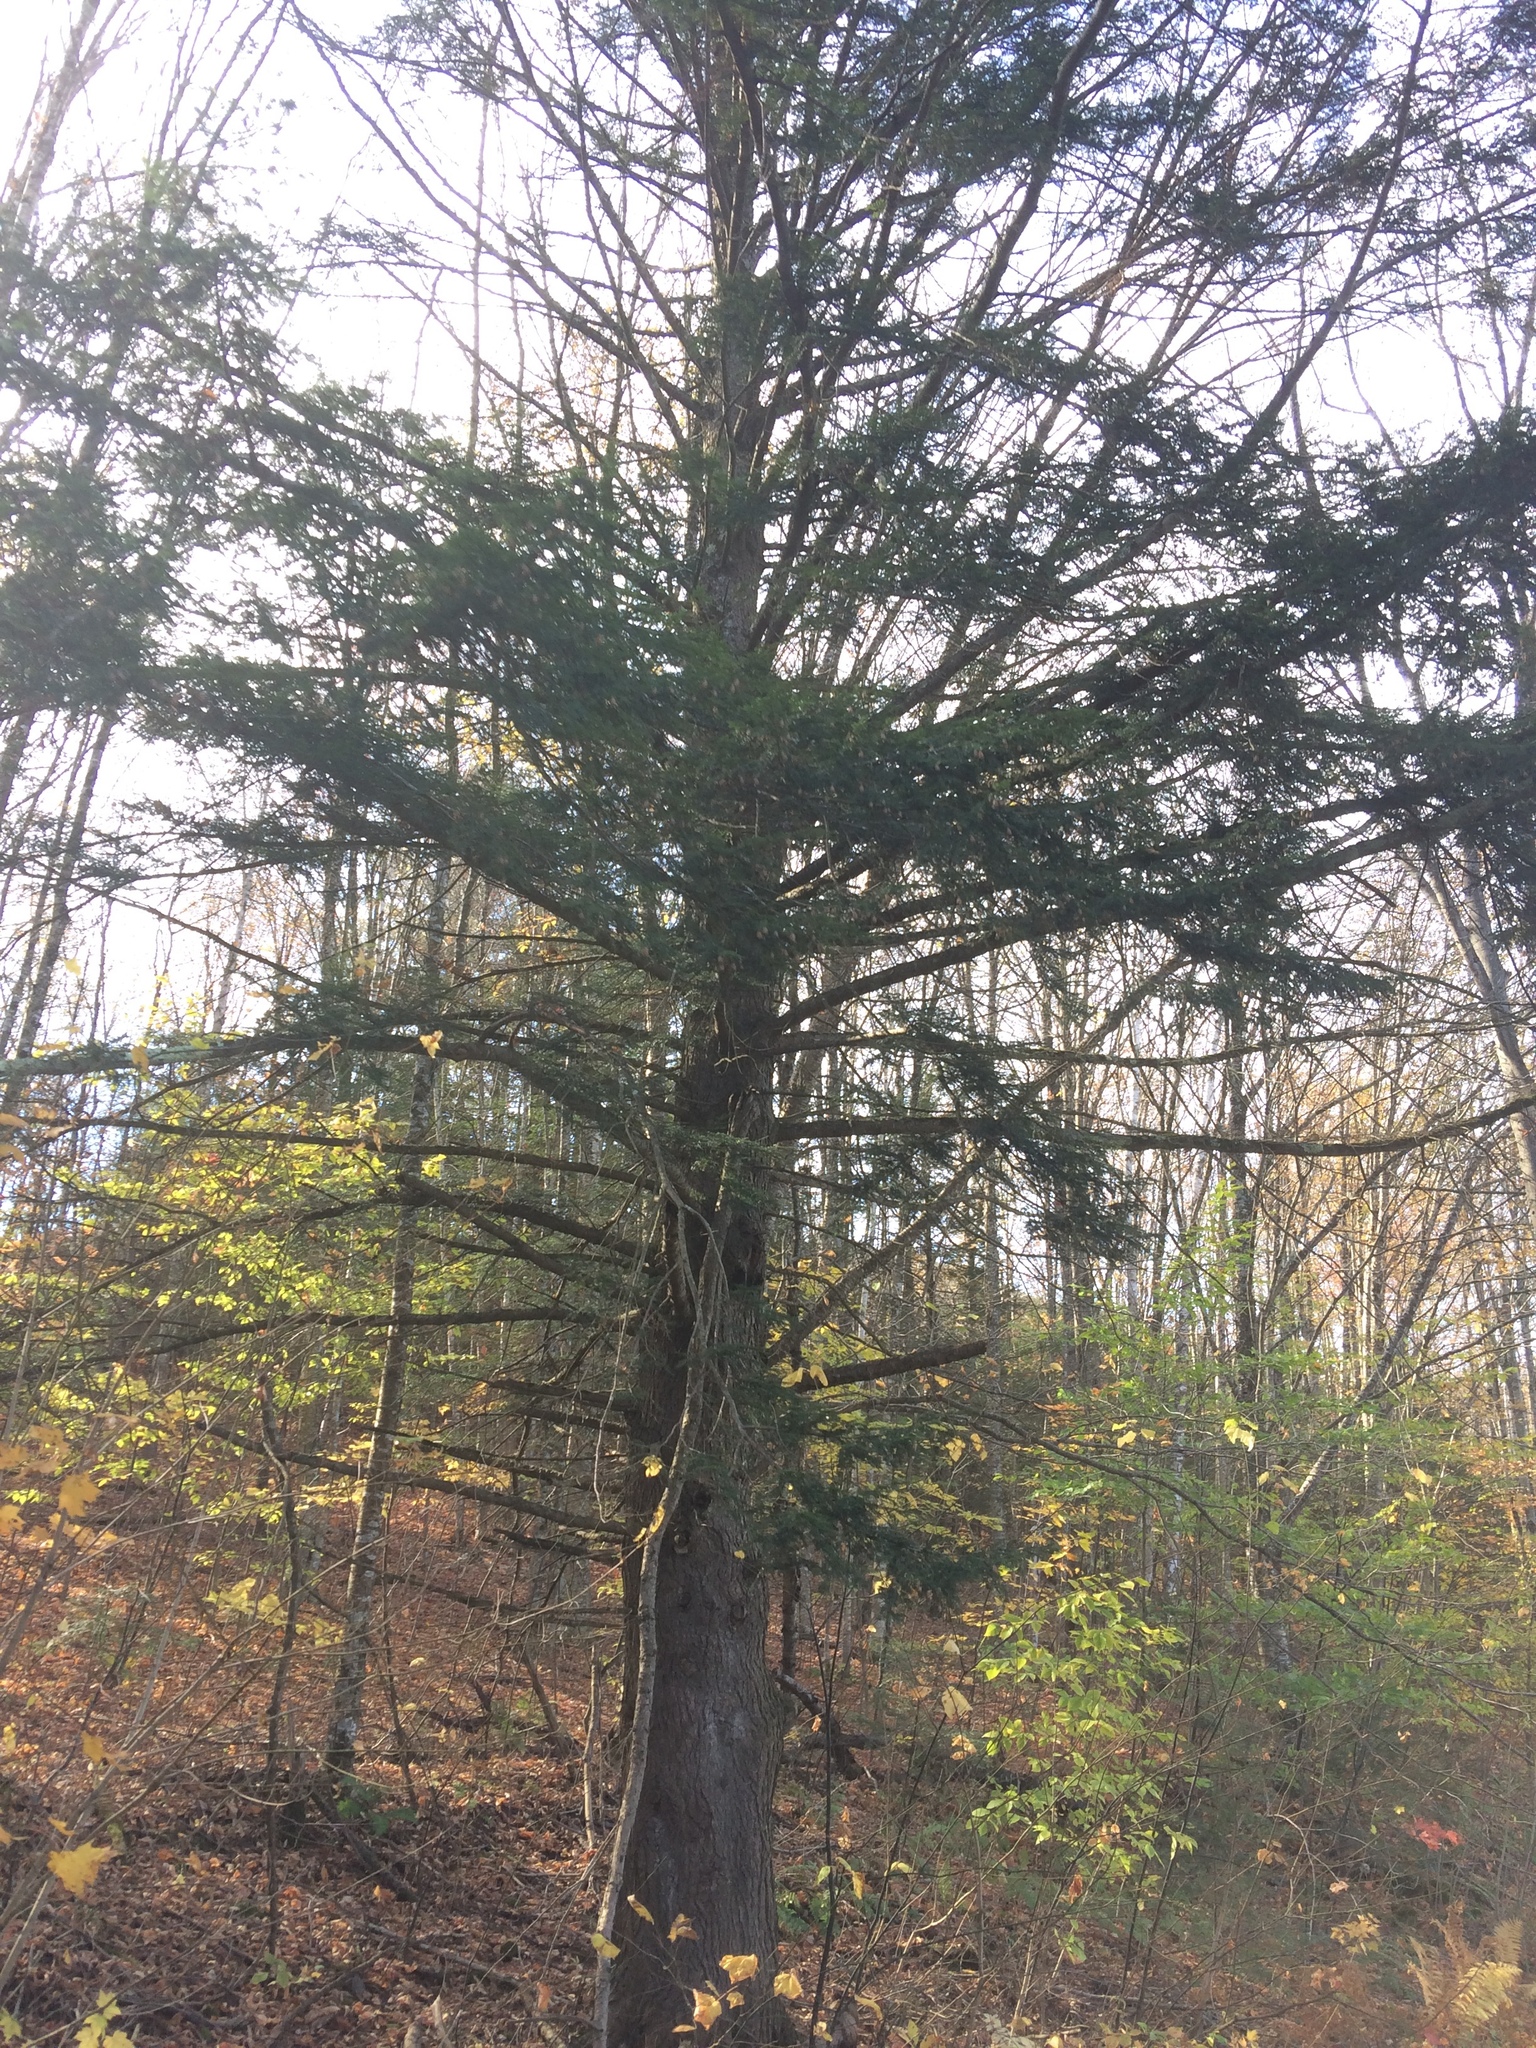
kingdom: Plantae
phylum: Tracheophyta
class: Pinopsida
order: Pinales
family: Pinaceae
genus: Tsuga
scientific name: Tsuga canadensis
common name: Eastern hemlock
